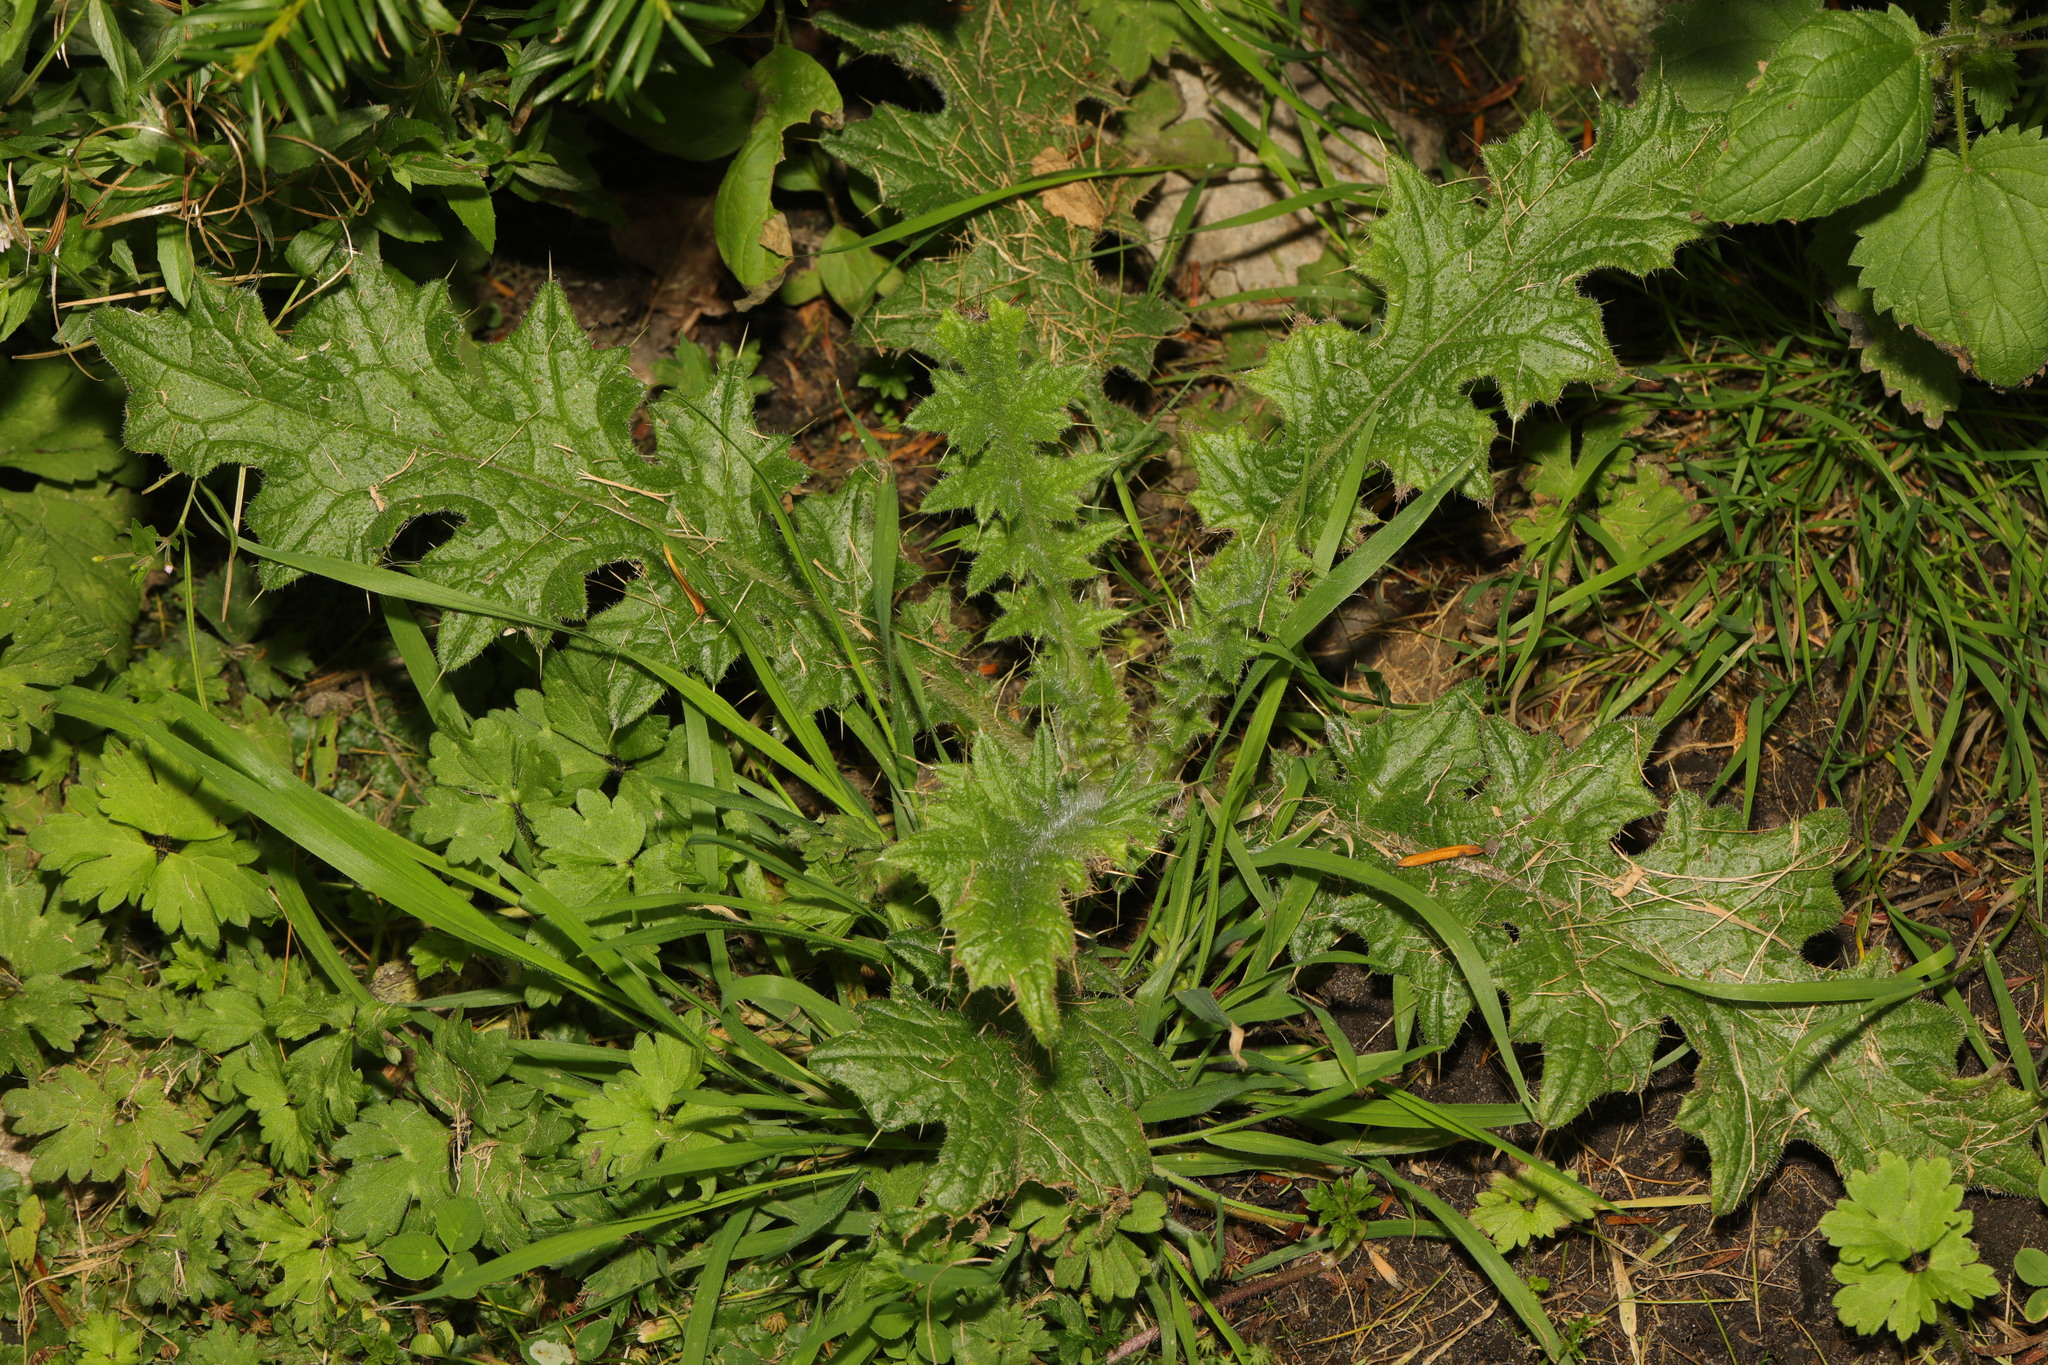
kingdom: Plantae
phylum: Tracheophyta
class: Magnoliopsida
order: Asterales
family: Asteraceae
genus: Cirsium
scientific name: Cirsium vulgare
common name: Bull thistle
